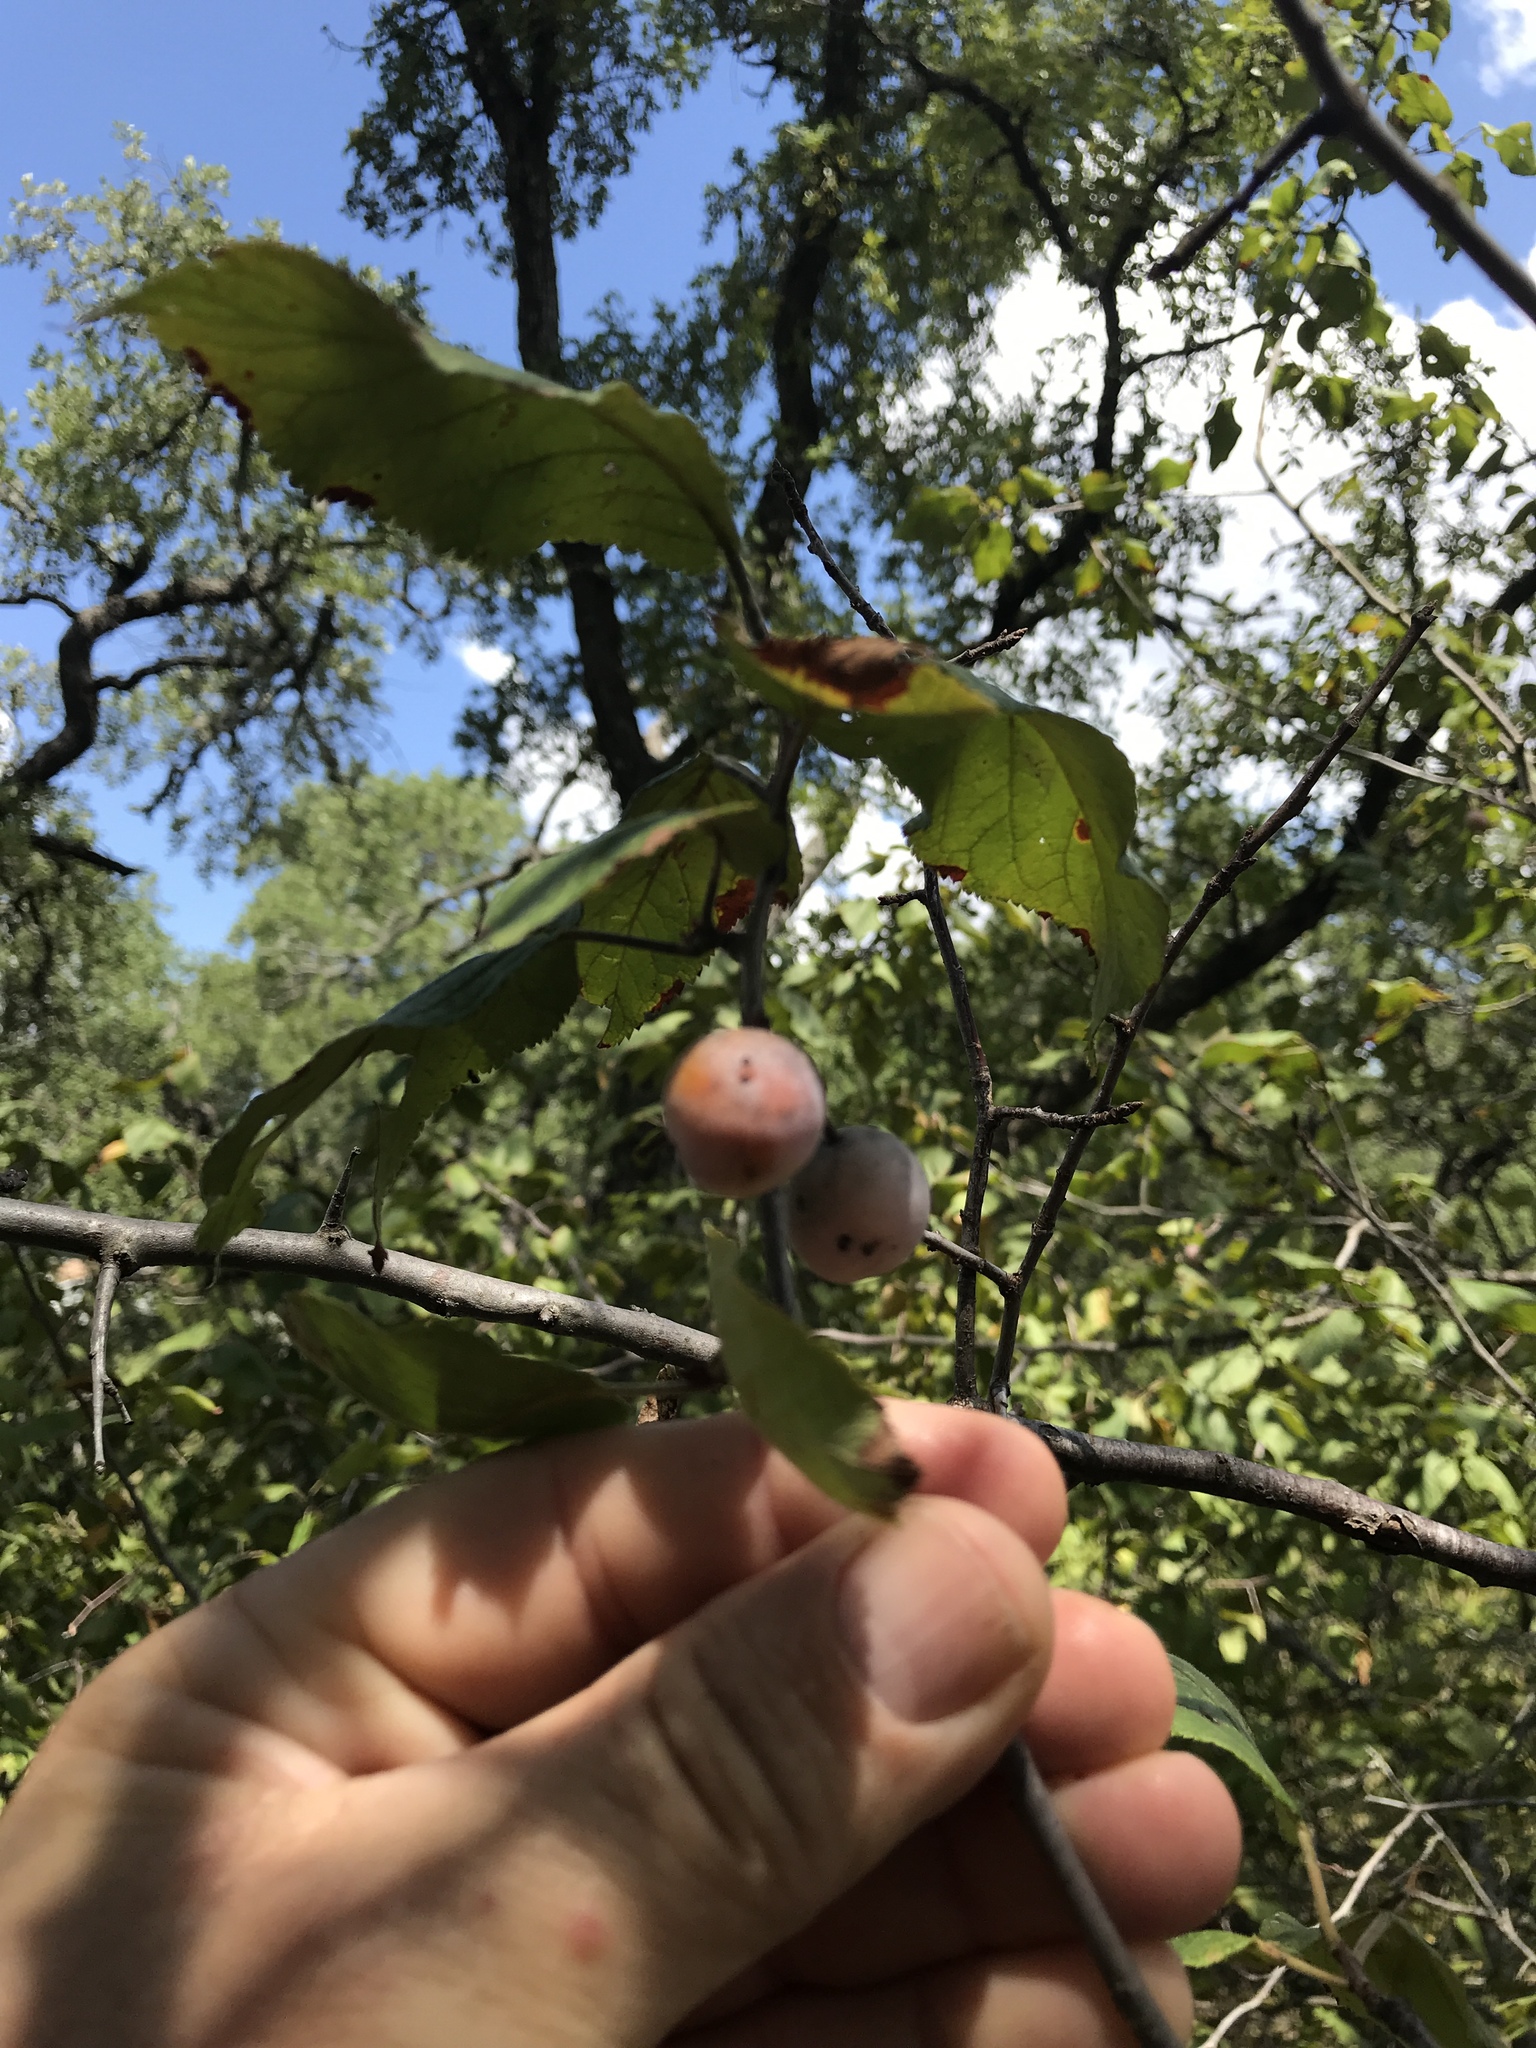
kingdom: Plantae
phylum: Tracheophyta
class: Magnoliopsida
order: Rosales
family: Rosaceae
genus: Prunus
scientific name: Prunus mexicana
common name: Mexican plum
